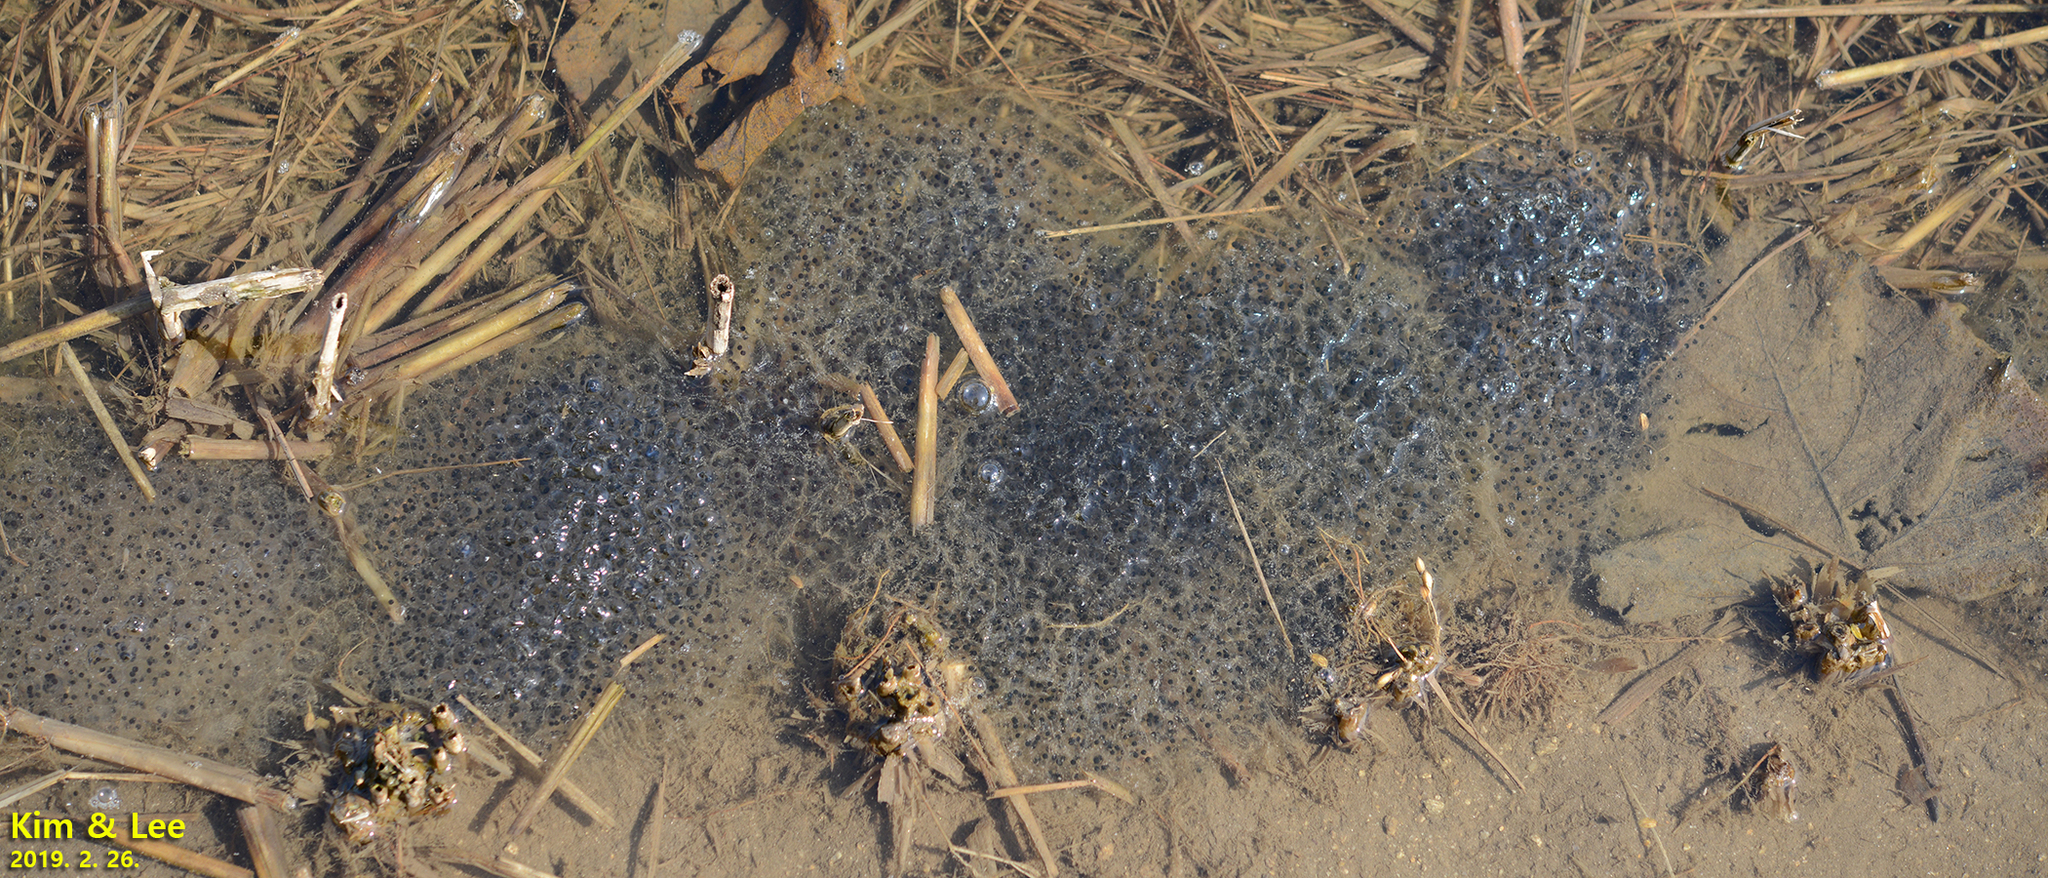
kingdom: Animalia
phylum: Chordata
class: Amphibia
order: Anura
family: Ranidae
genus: Rana
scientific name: Rana uenoi
